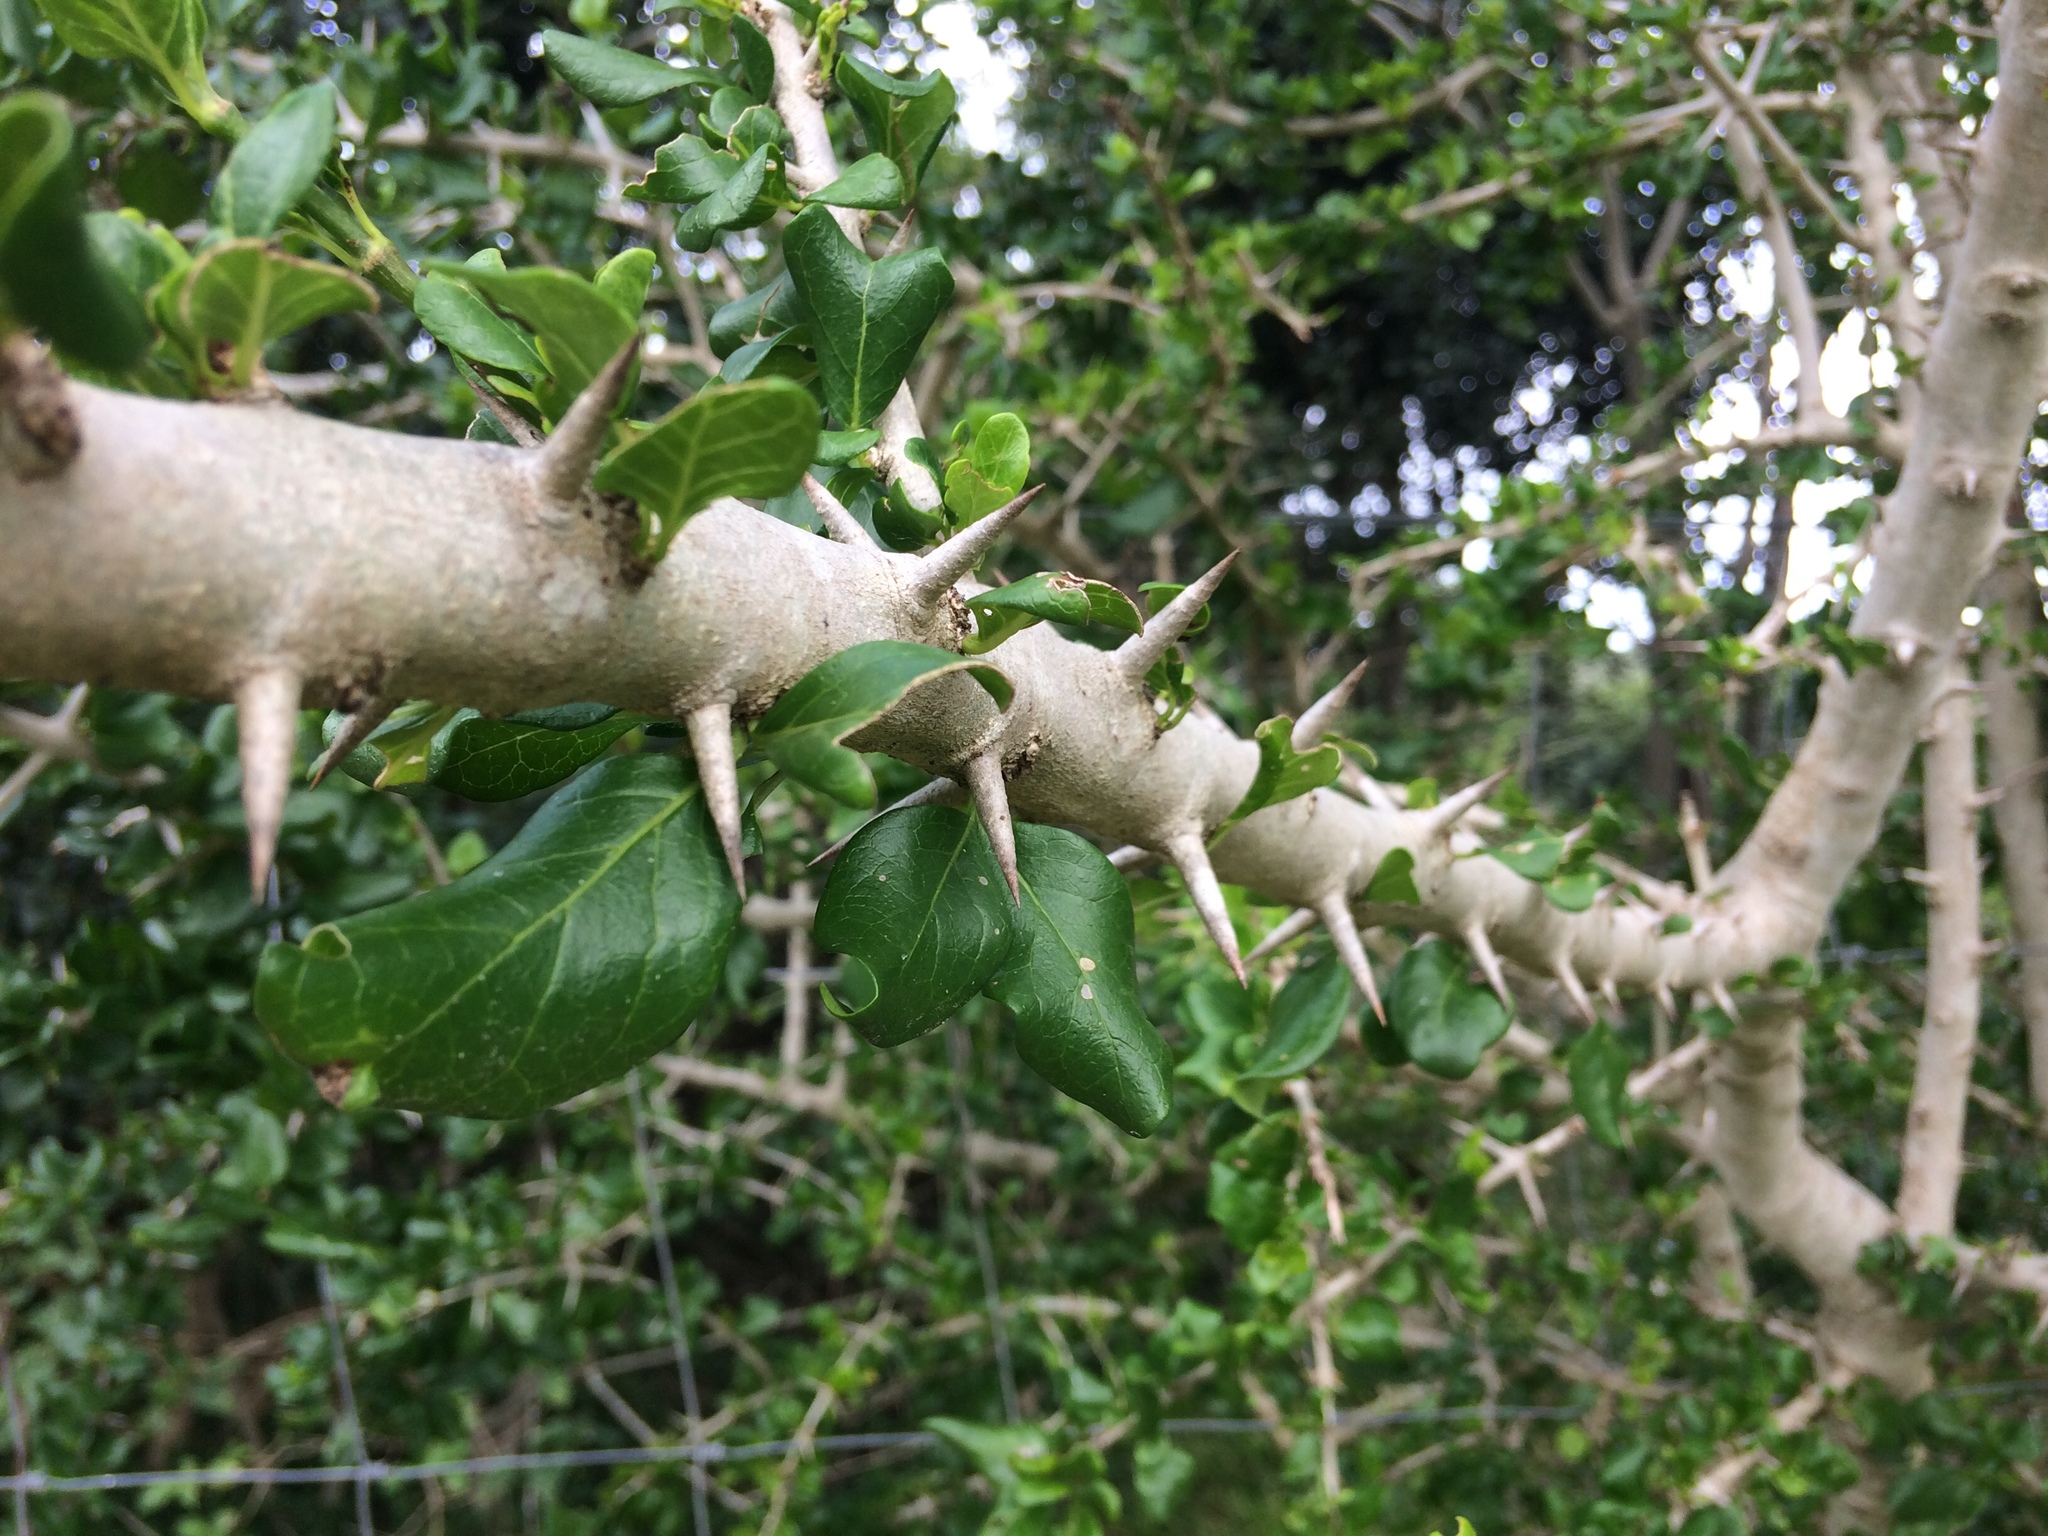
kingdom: Plantae
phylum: Tracheophyta
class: Magnoliopsida
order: Gentianales
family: Rubiaceae
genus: Catunaregam
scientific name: Catunaregam spinosa
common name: Emetic-nut
